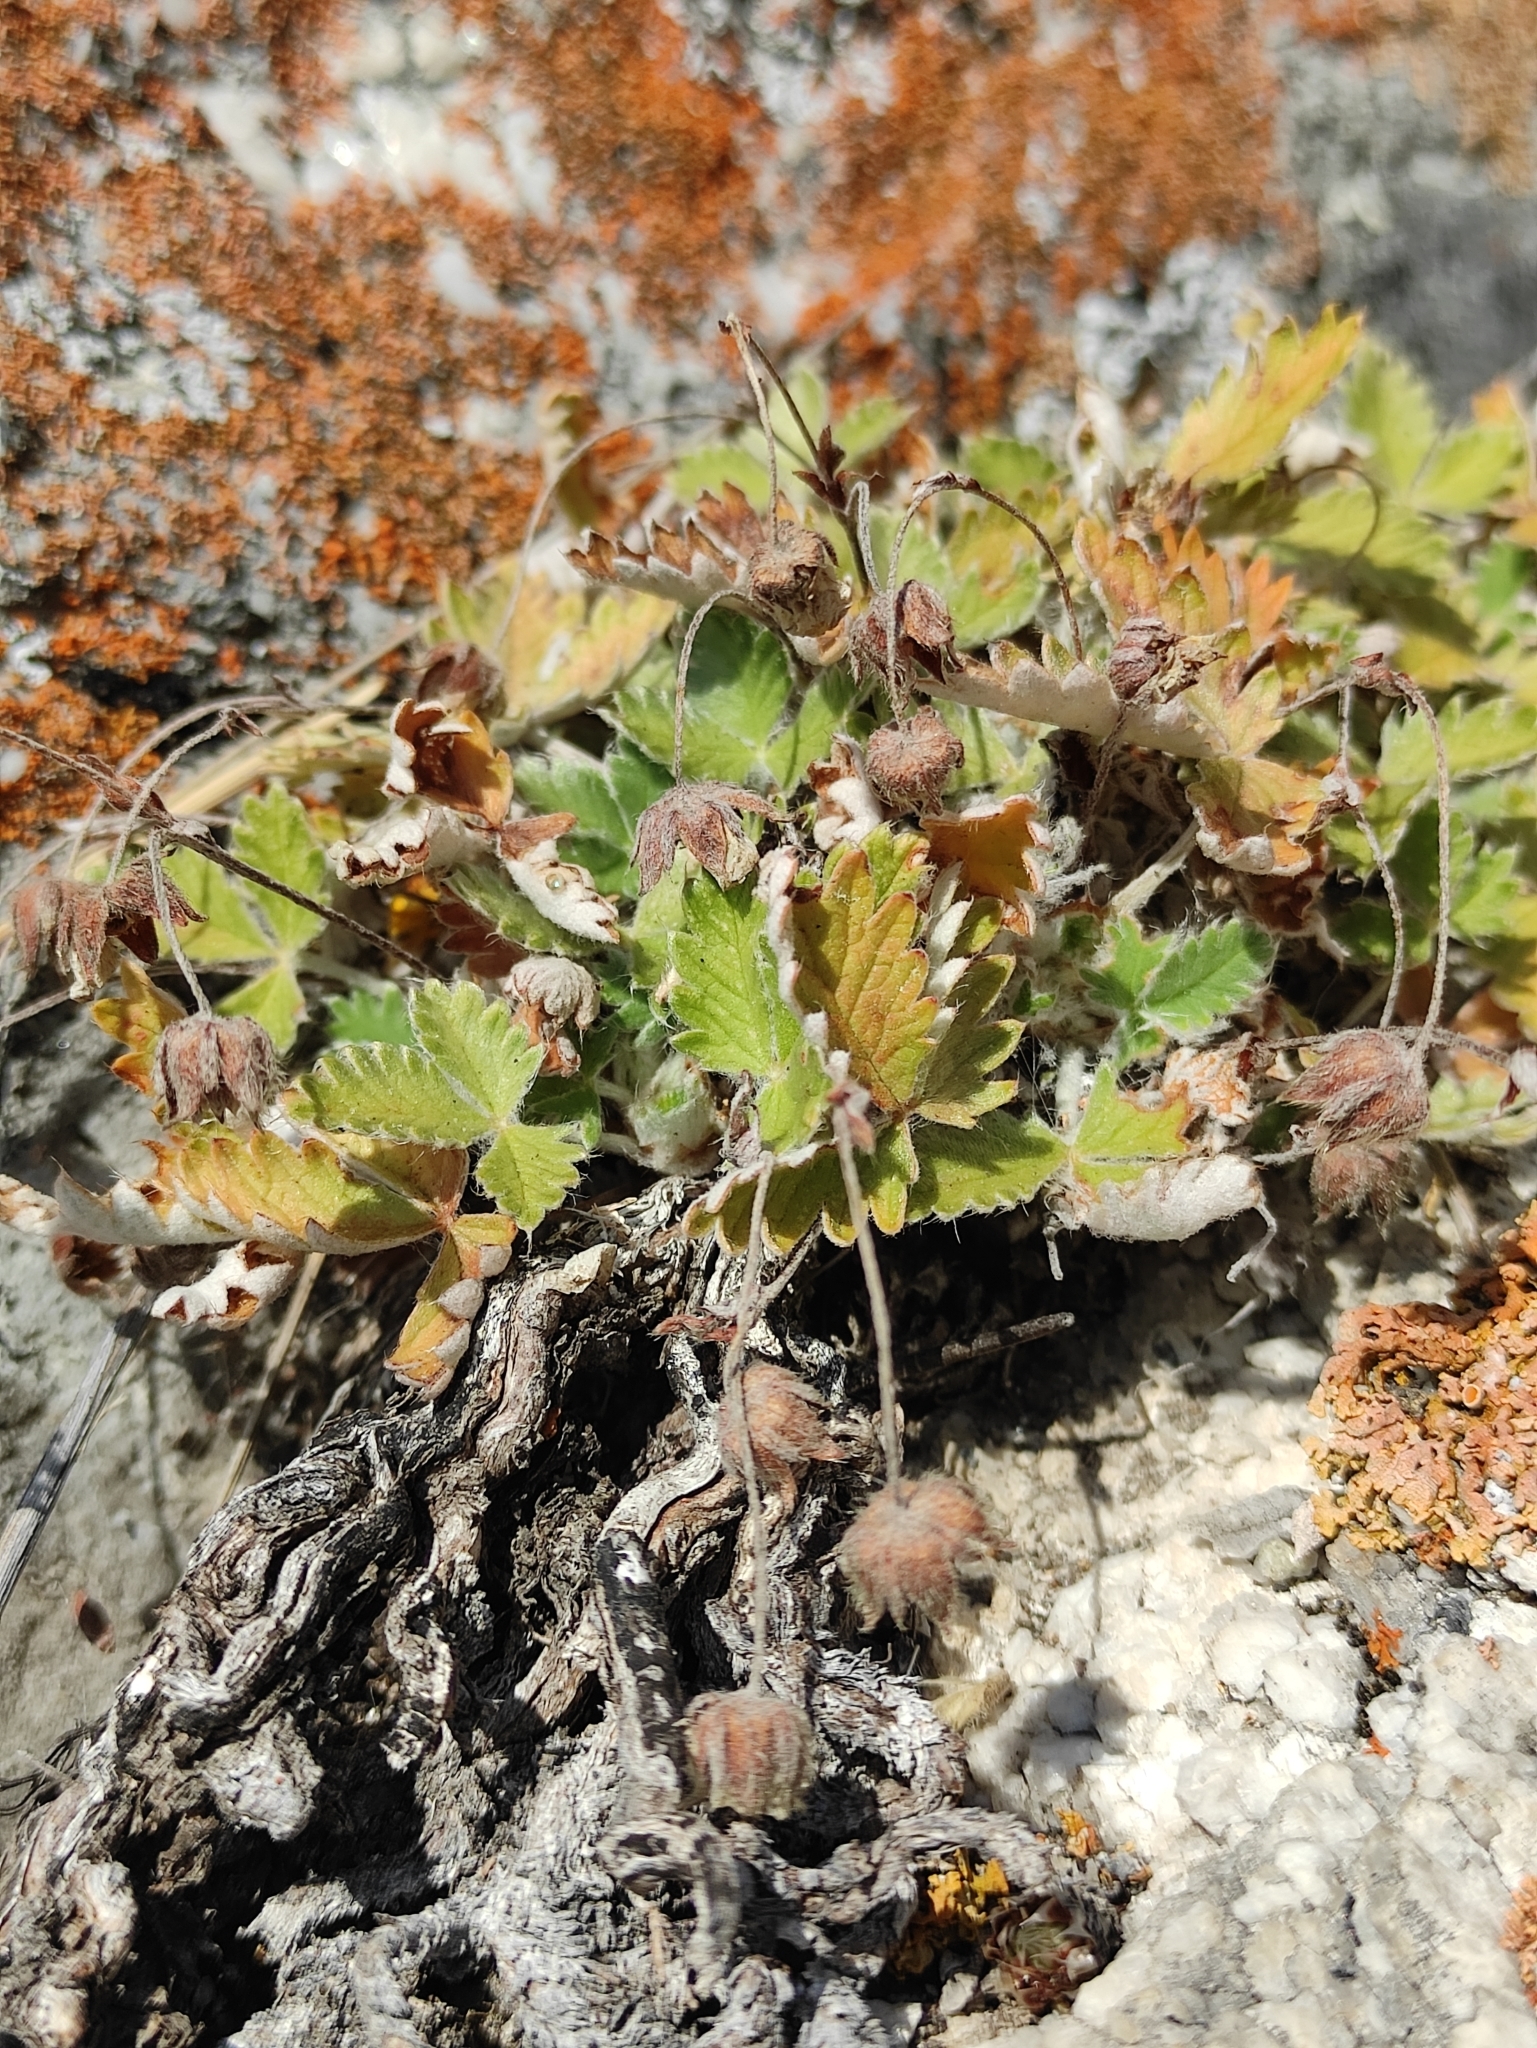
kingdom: Plantae
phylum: Tracheophyta
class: Magnoliopsida
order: Rosales
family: Rosaceae
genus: Potentilla
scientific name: Potentilla arenosa
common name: Bluff cinquefoil
